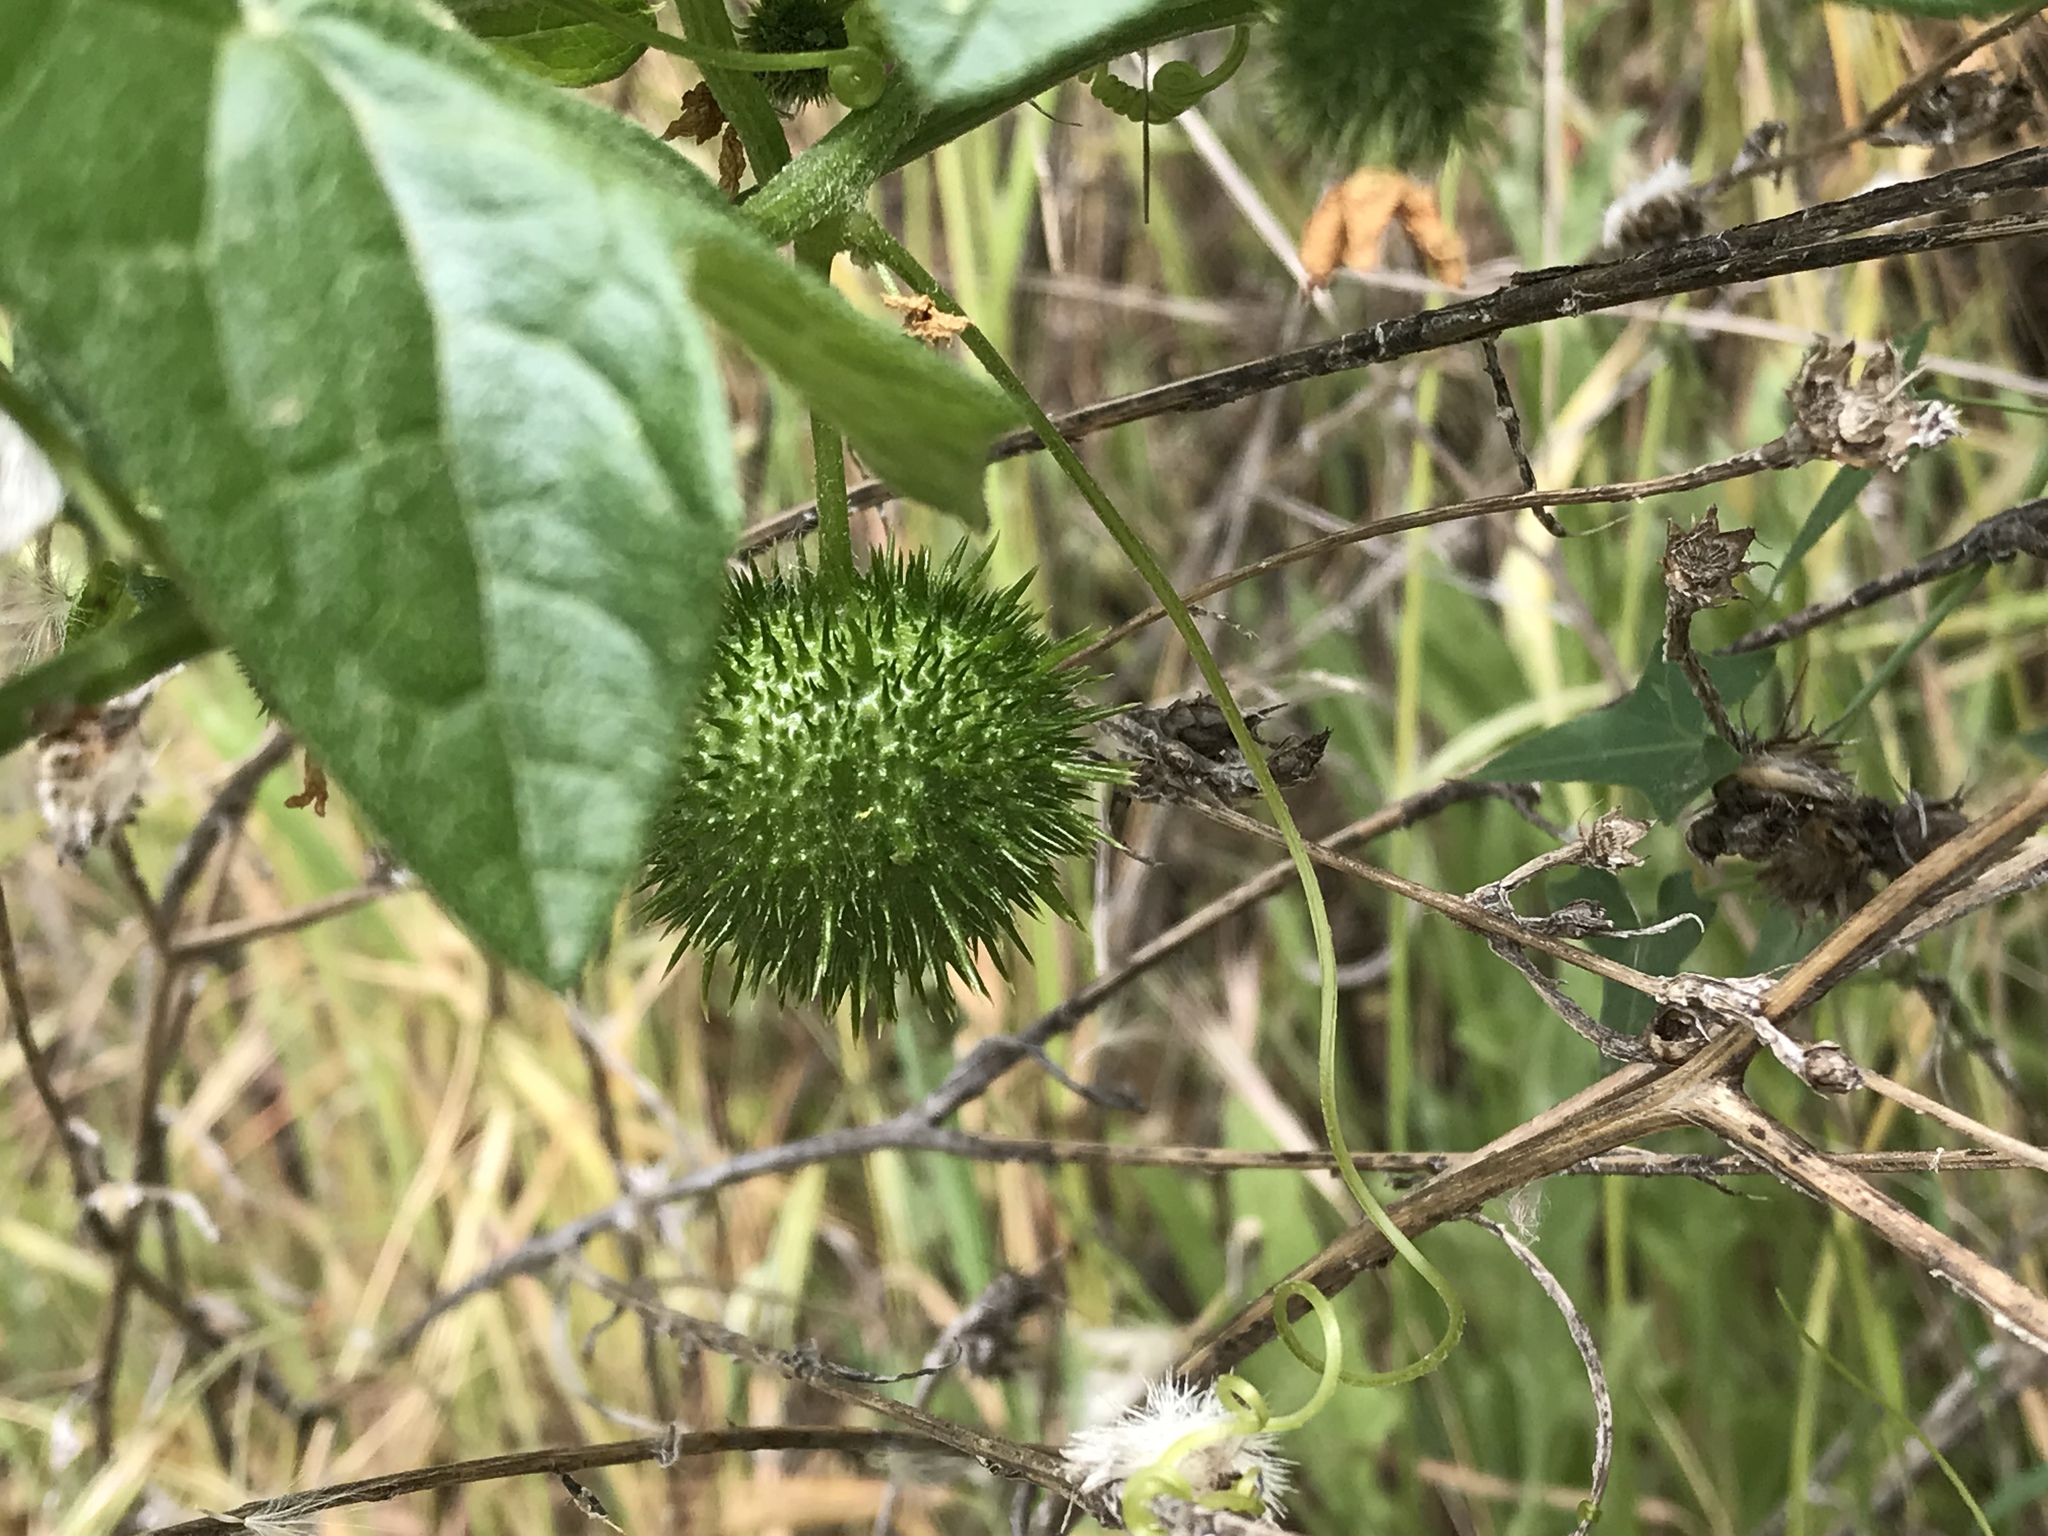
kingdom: Plantae
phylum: Tracheophyta
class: Magnoliopsida
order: Cucurbitales
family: Cucurbitaceae
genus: Marah
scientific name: Marah fabacea
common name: California manroot
